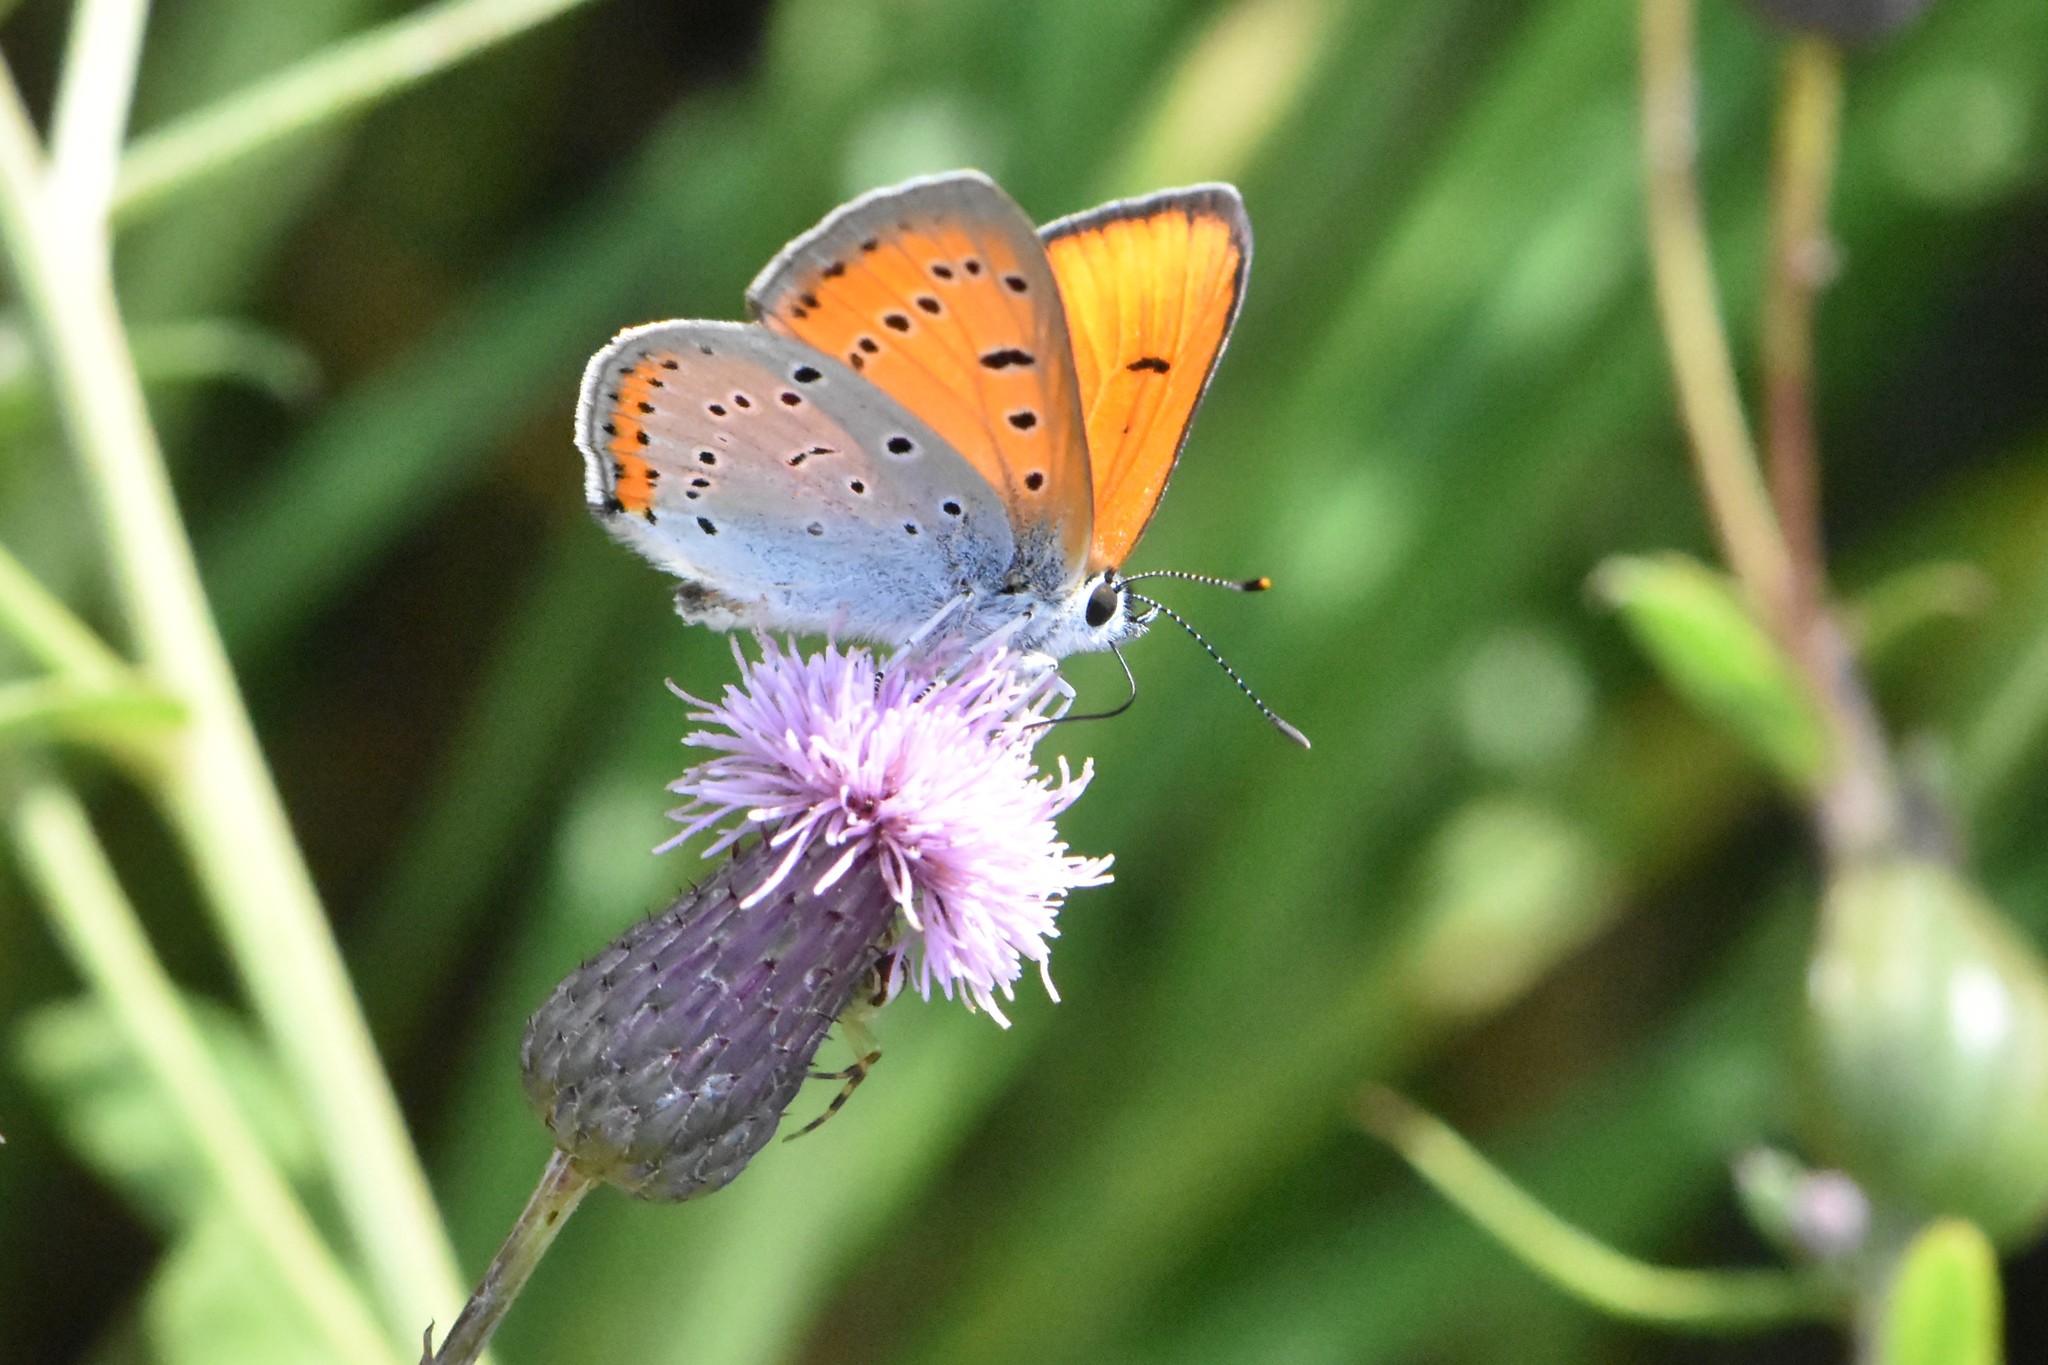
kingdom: Animalia
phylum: Arthropoda
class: Insecta
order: Lepidoptera
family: Lycaenidae
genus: Lycaena
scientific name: Lycaena dispar
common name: Large copper
